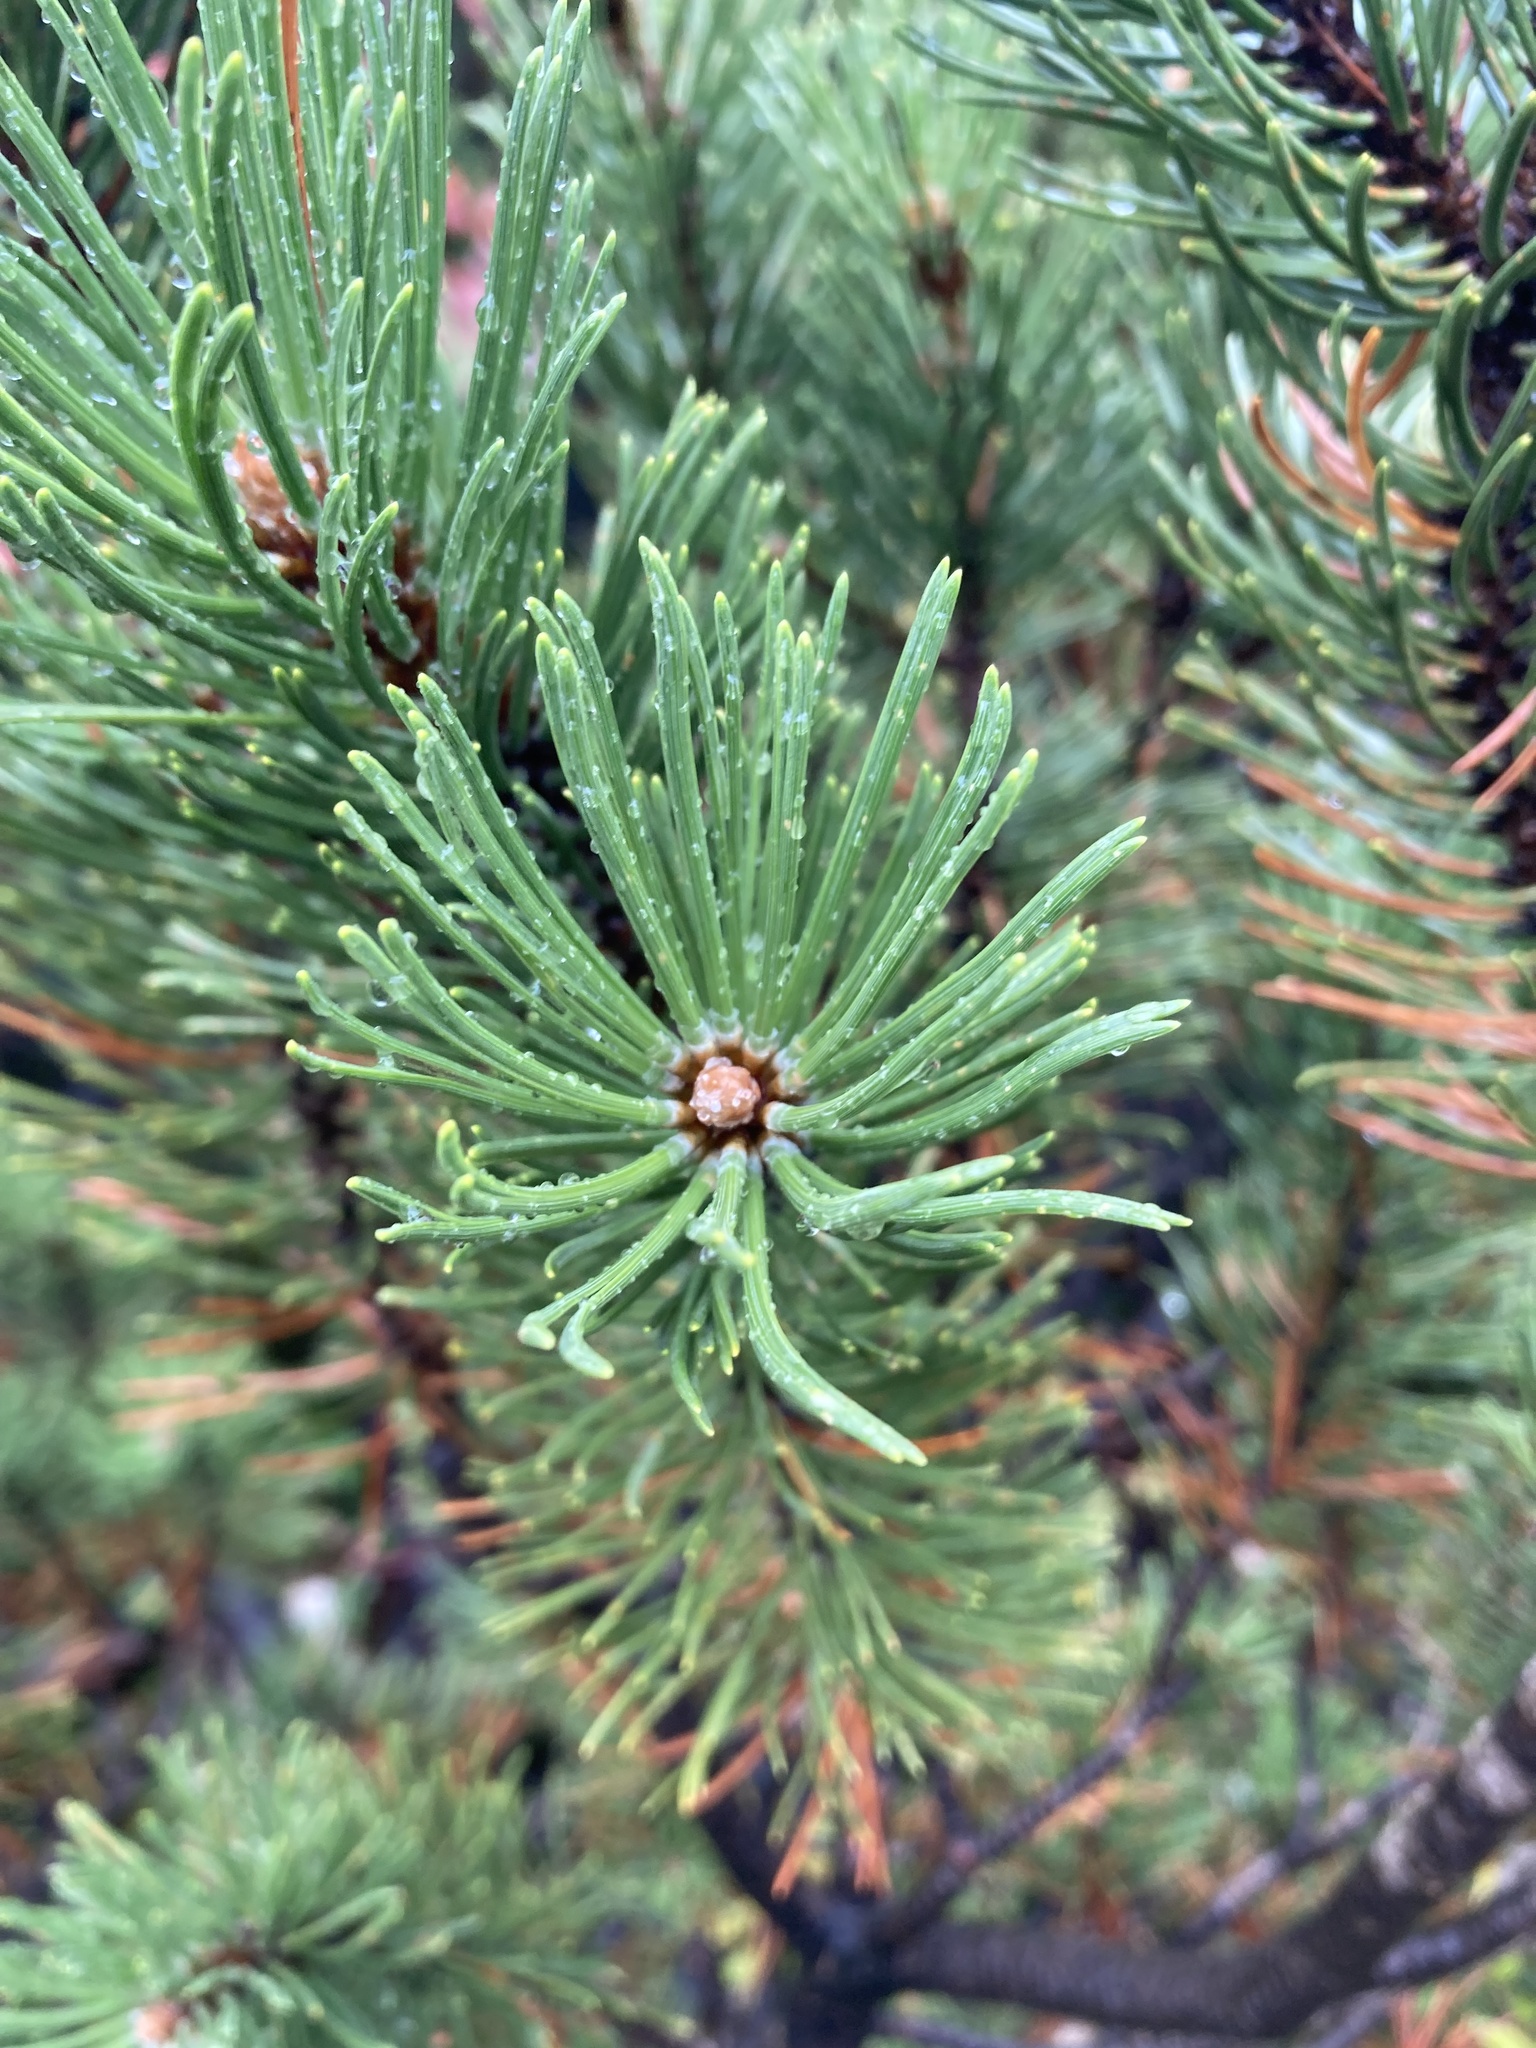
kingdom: Plantae
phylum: Tracheophyta
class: Pinopsida
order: Pinales
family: Pinaceae
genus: Pinus
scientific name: Pinus mugo
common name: Mugo pine
